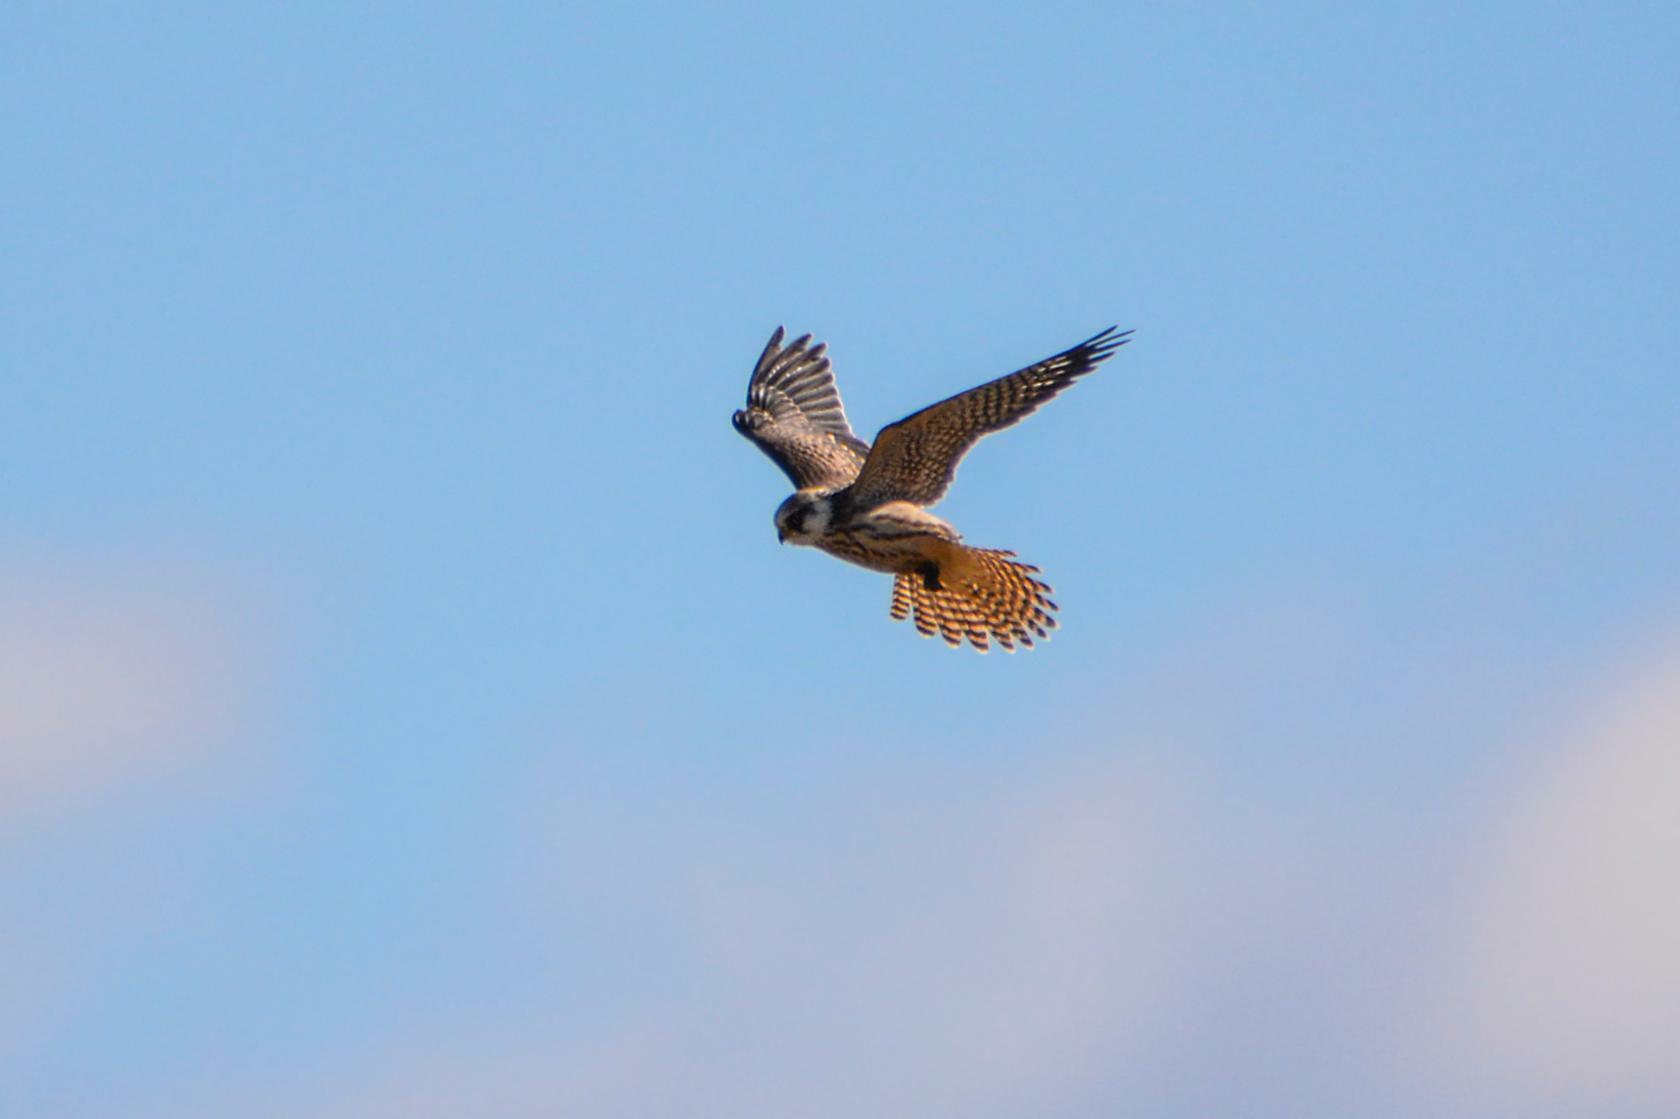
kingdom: Animalia
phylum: Chordata
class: Aves
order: Falconiformes
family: Falconidae
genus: Falco
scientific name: Falco vespertinus
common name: Red-footed falcon
